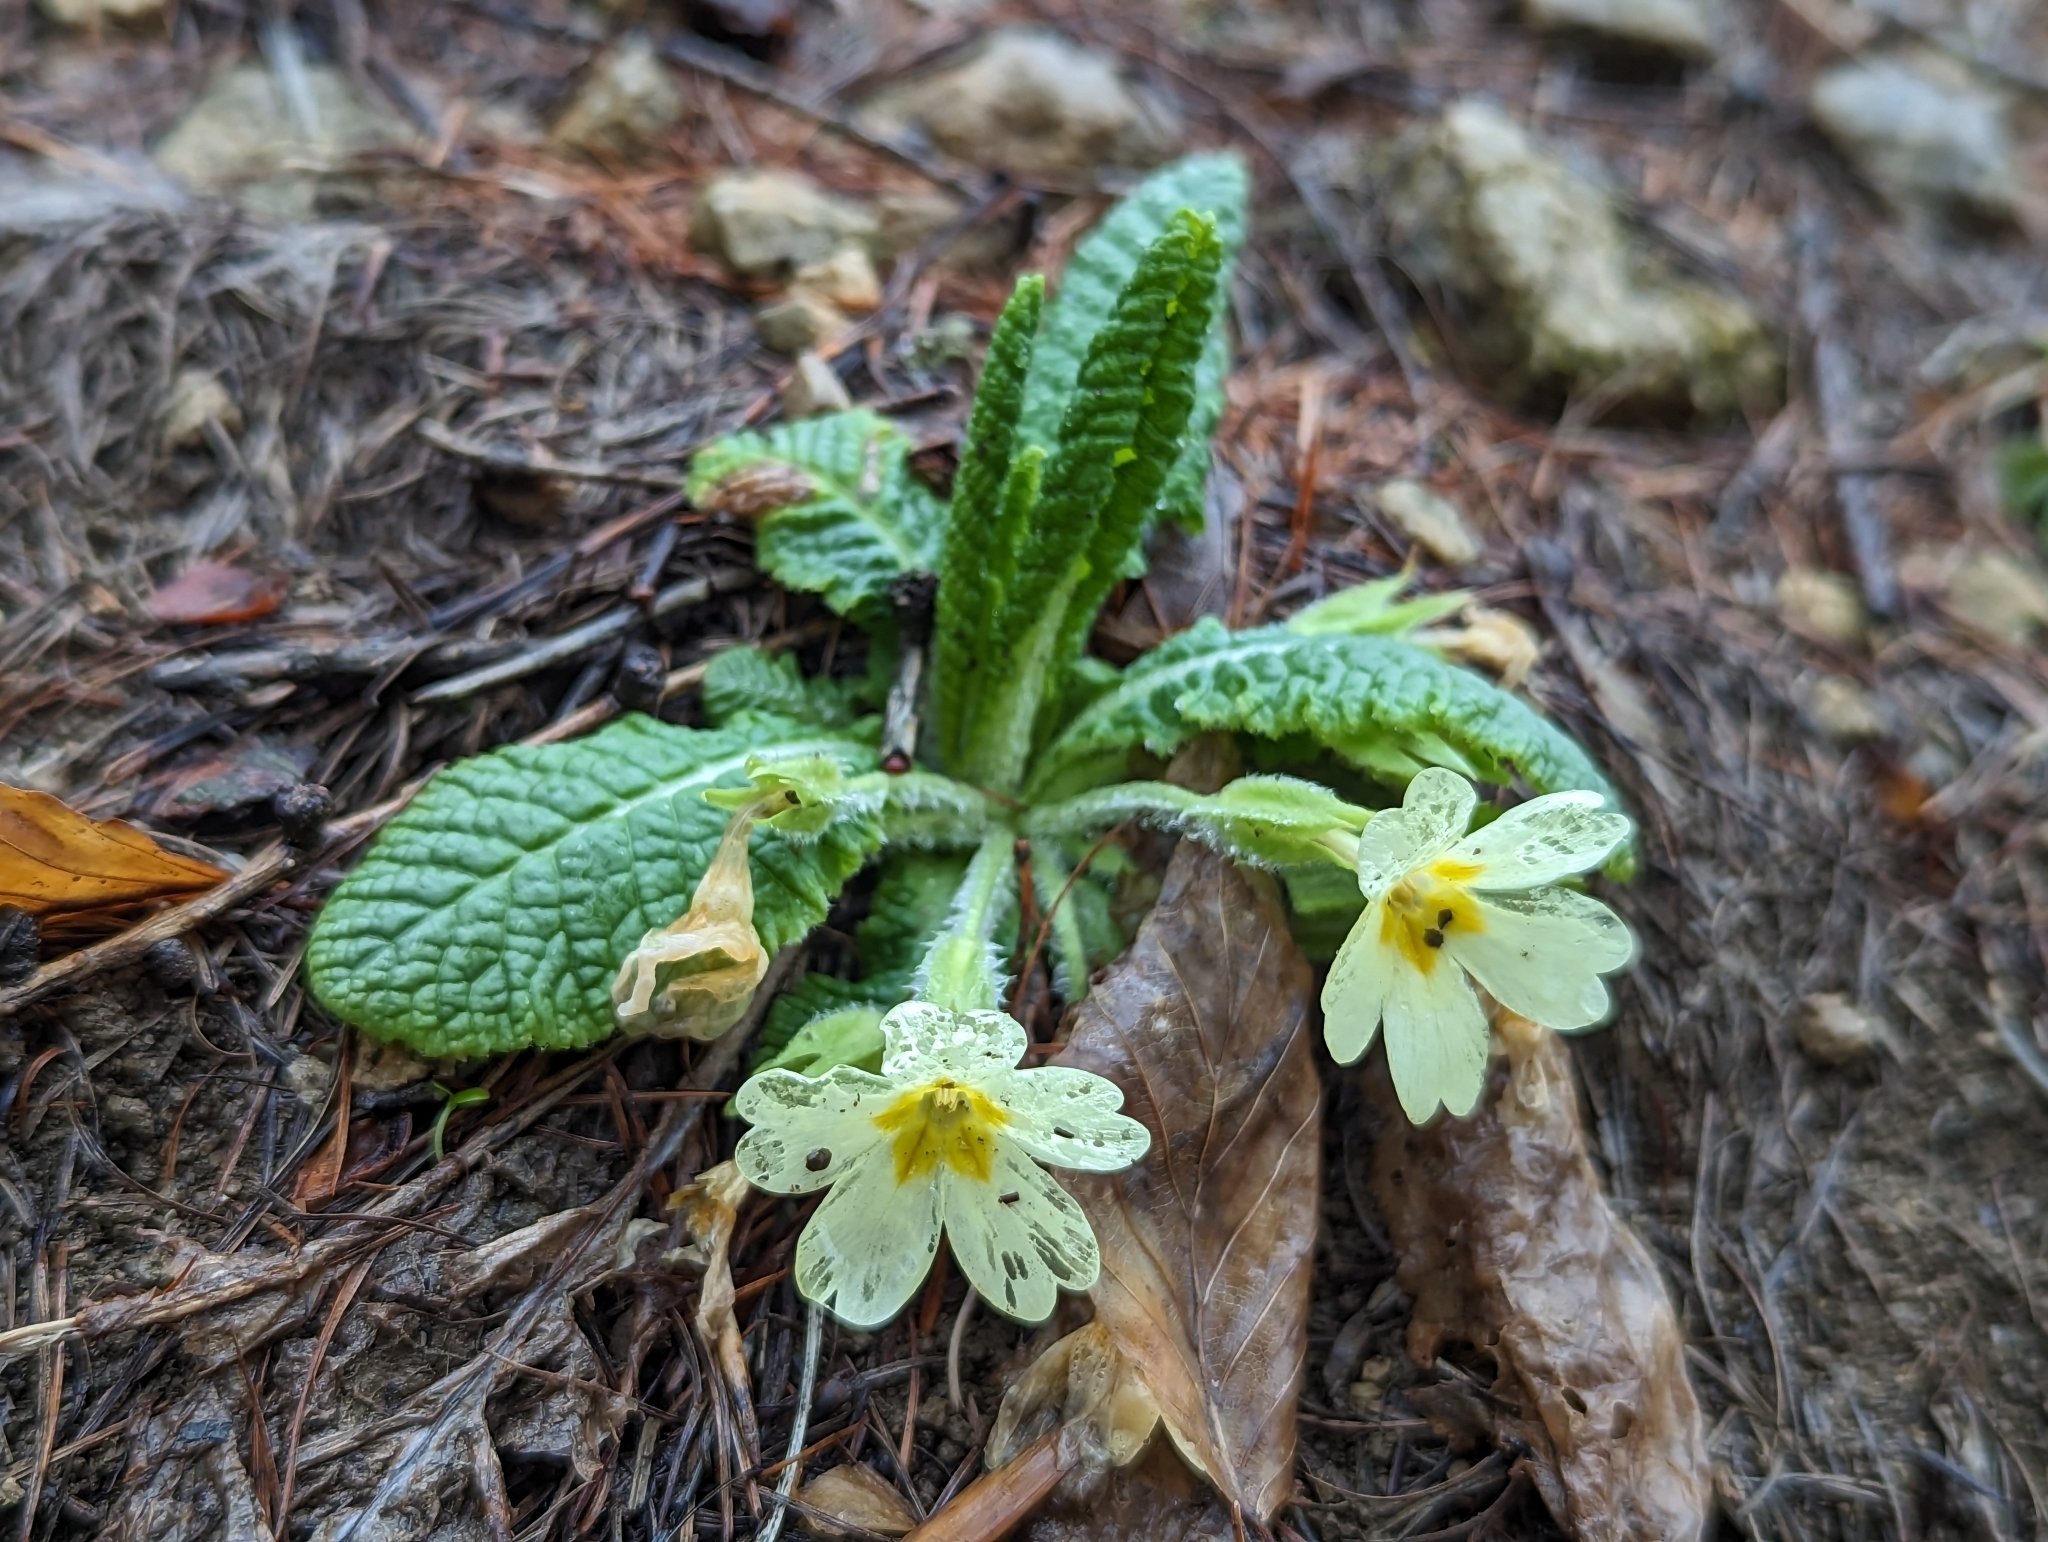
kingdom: Plantae
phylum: Tracheophyta
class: Magnoliopsida
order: Ericales
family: Primulaceae
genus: Primula
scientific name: Primula vulgaris
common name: Primrose
